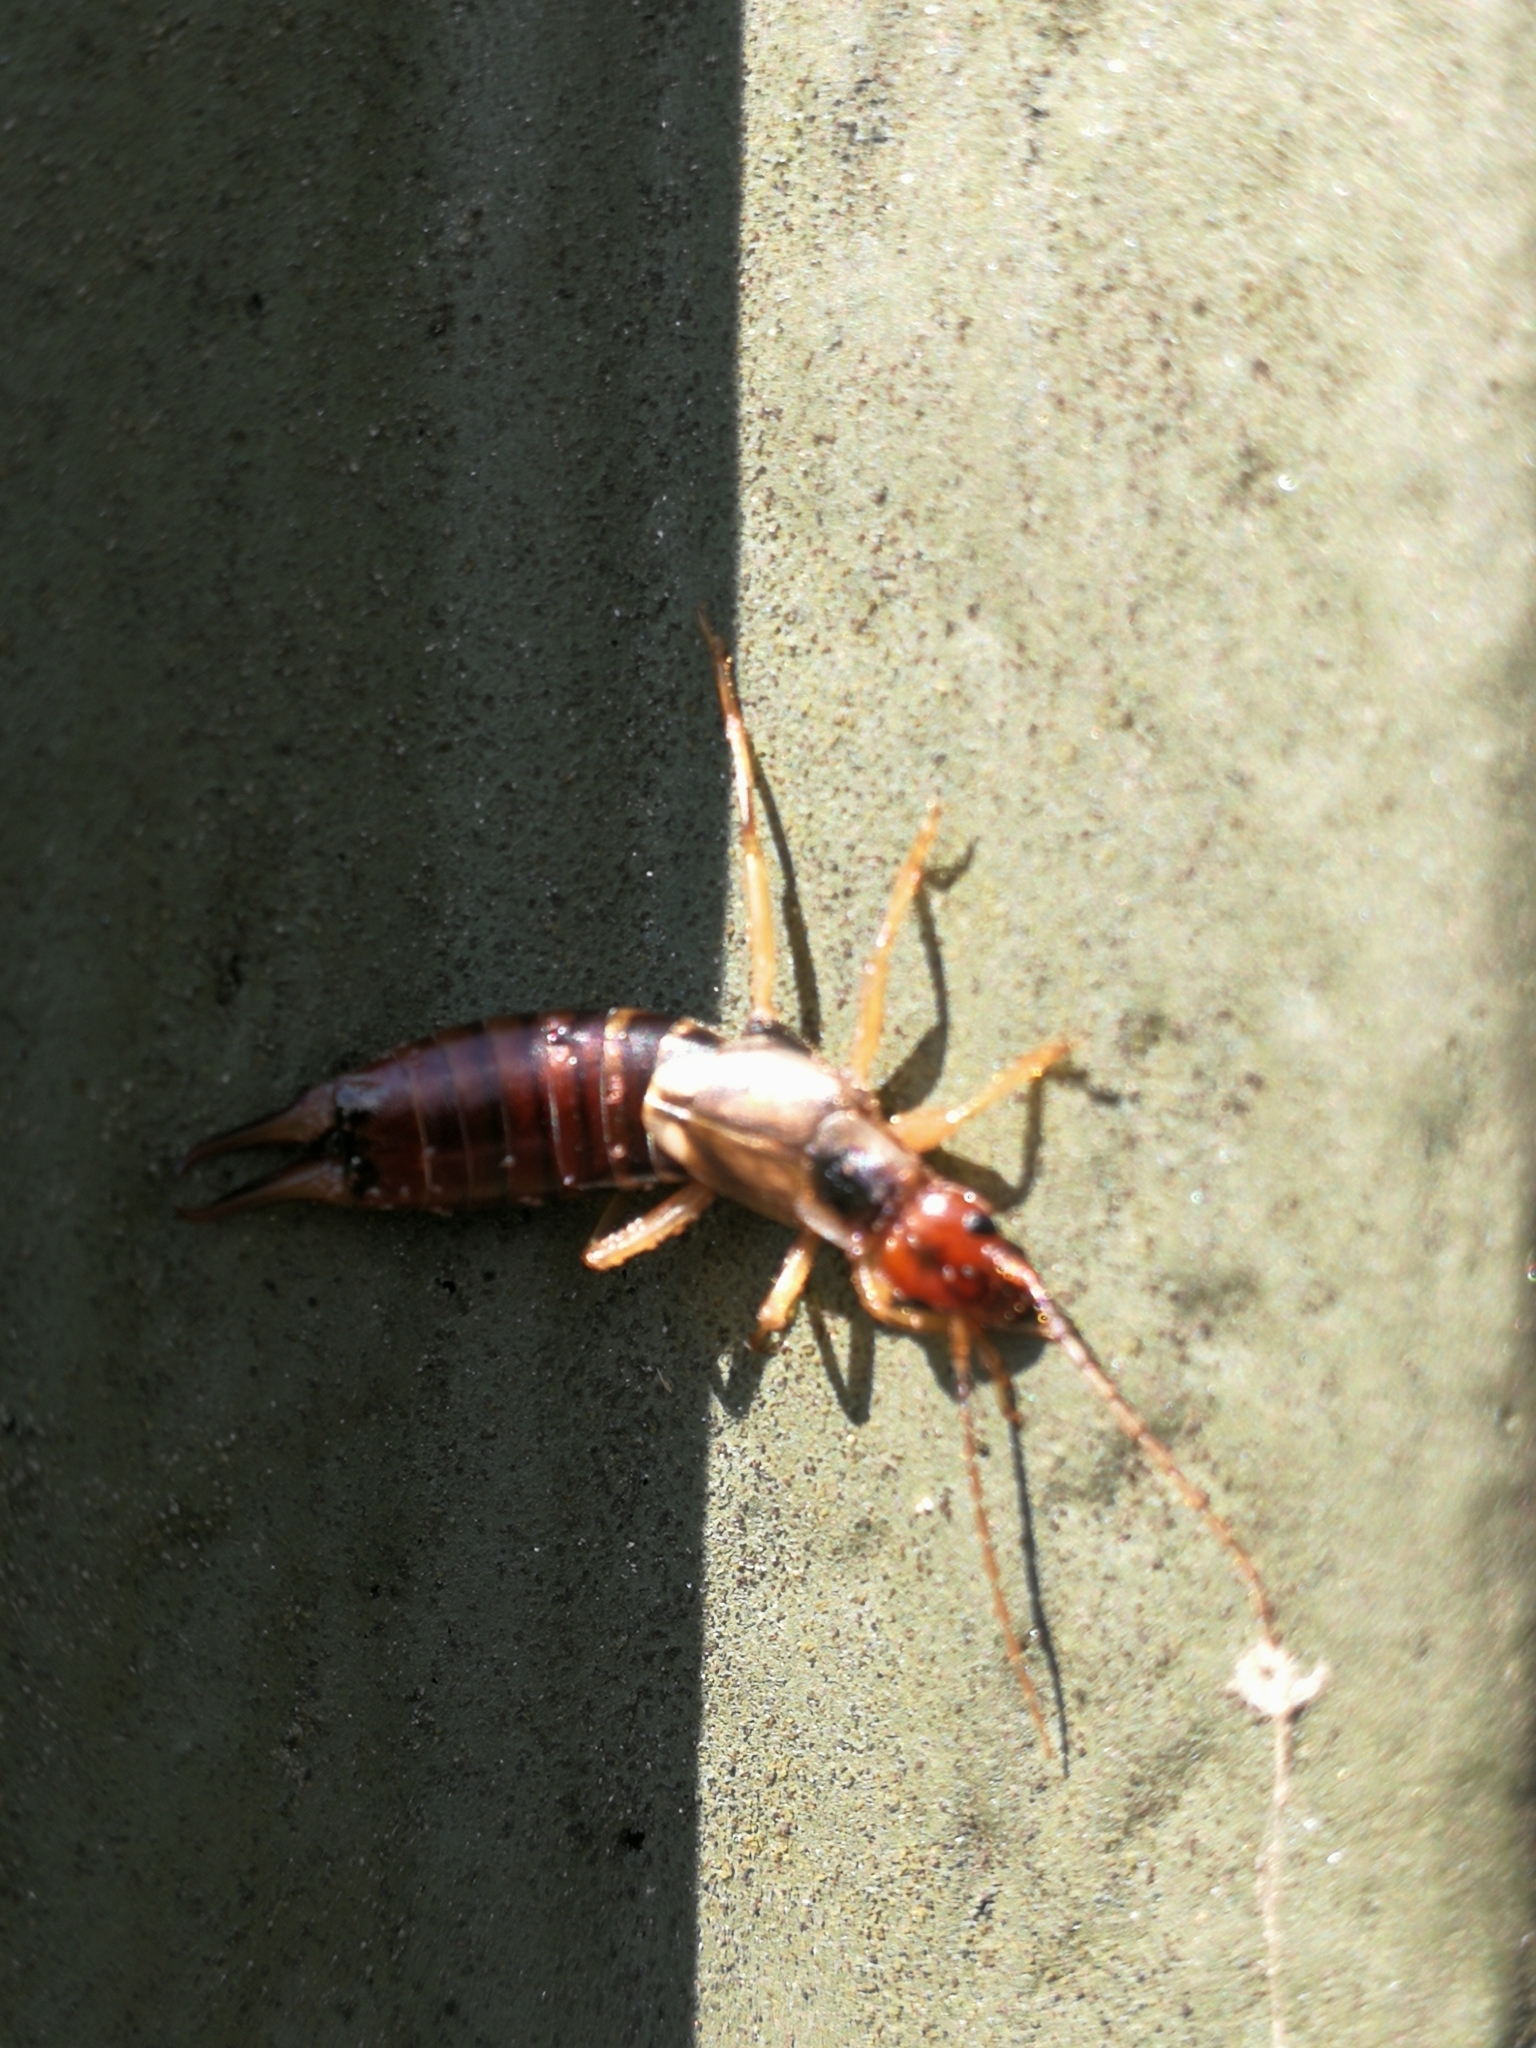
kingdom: Animalia
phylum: Arthropoda
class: Insecta
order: Dermaptera
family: Forficulidae
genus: Forficula
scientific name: Forficula
